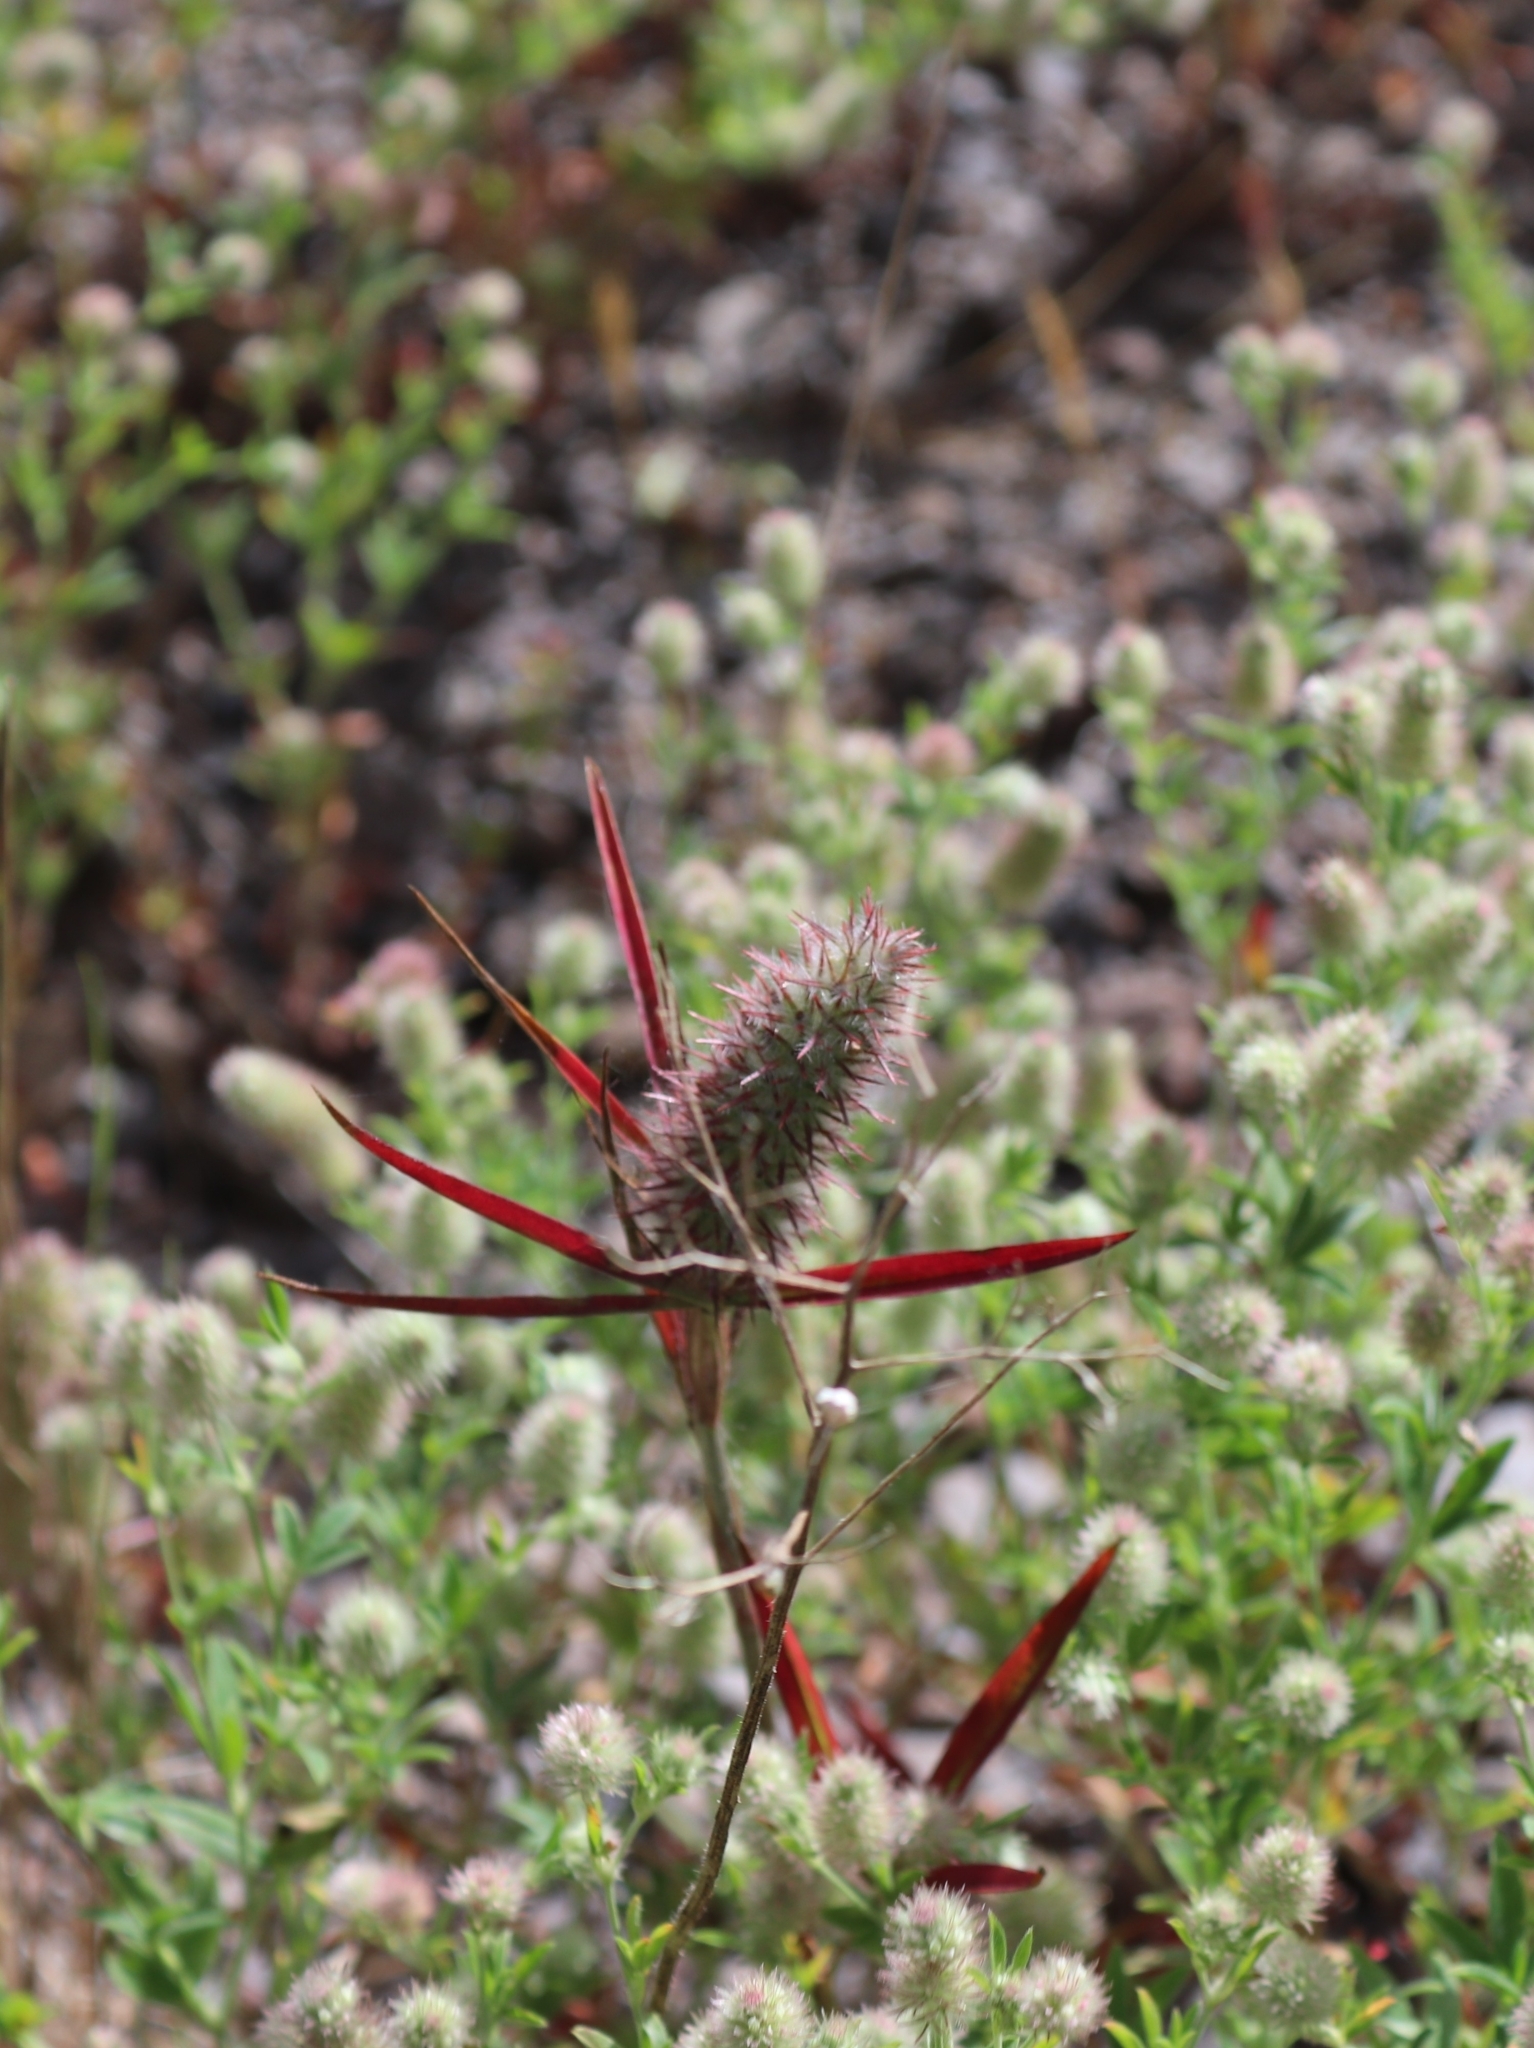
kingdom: Plantae
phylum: Tracheophyta
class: Magnoliopsida
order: Fabales
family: Fabaceae
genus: Trifolium
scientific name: Trifolium angustifolium
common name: Narrow clover
